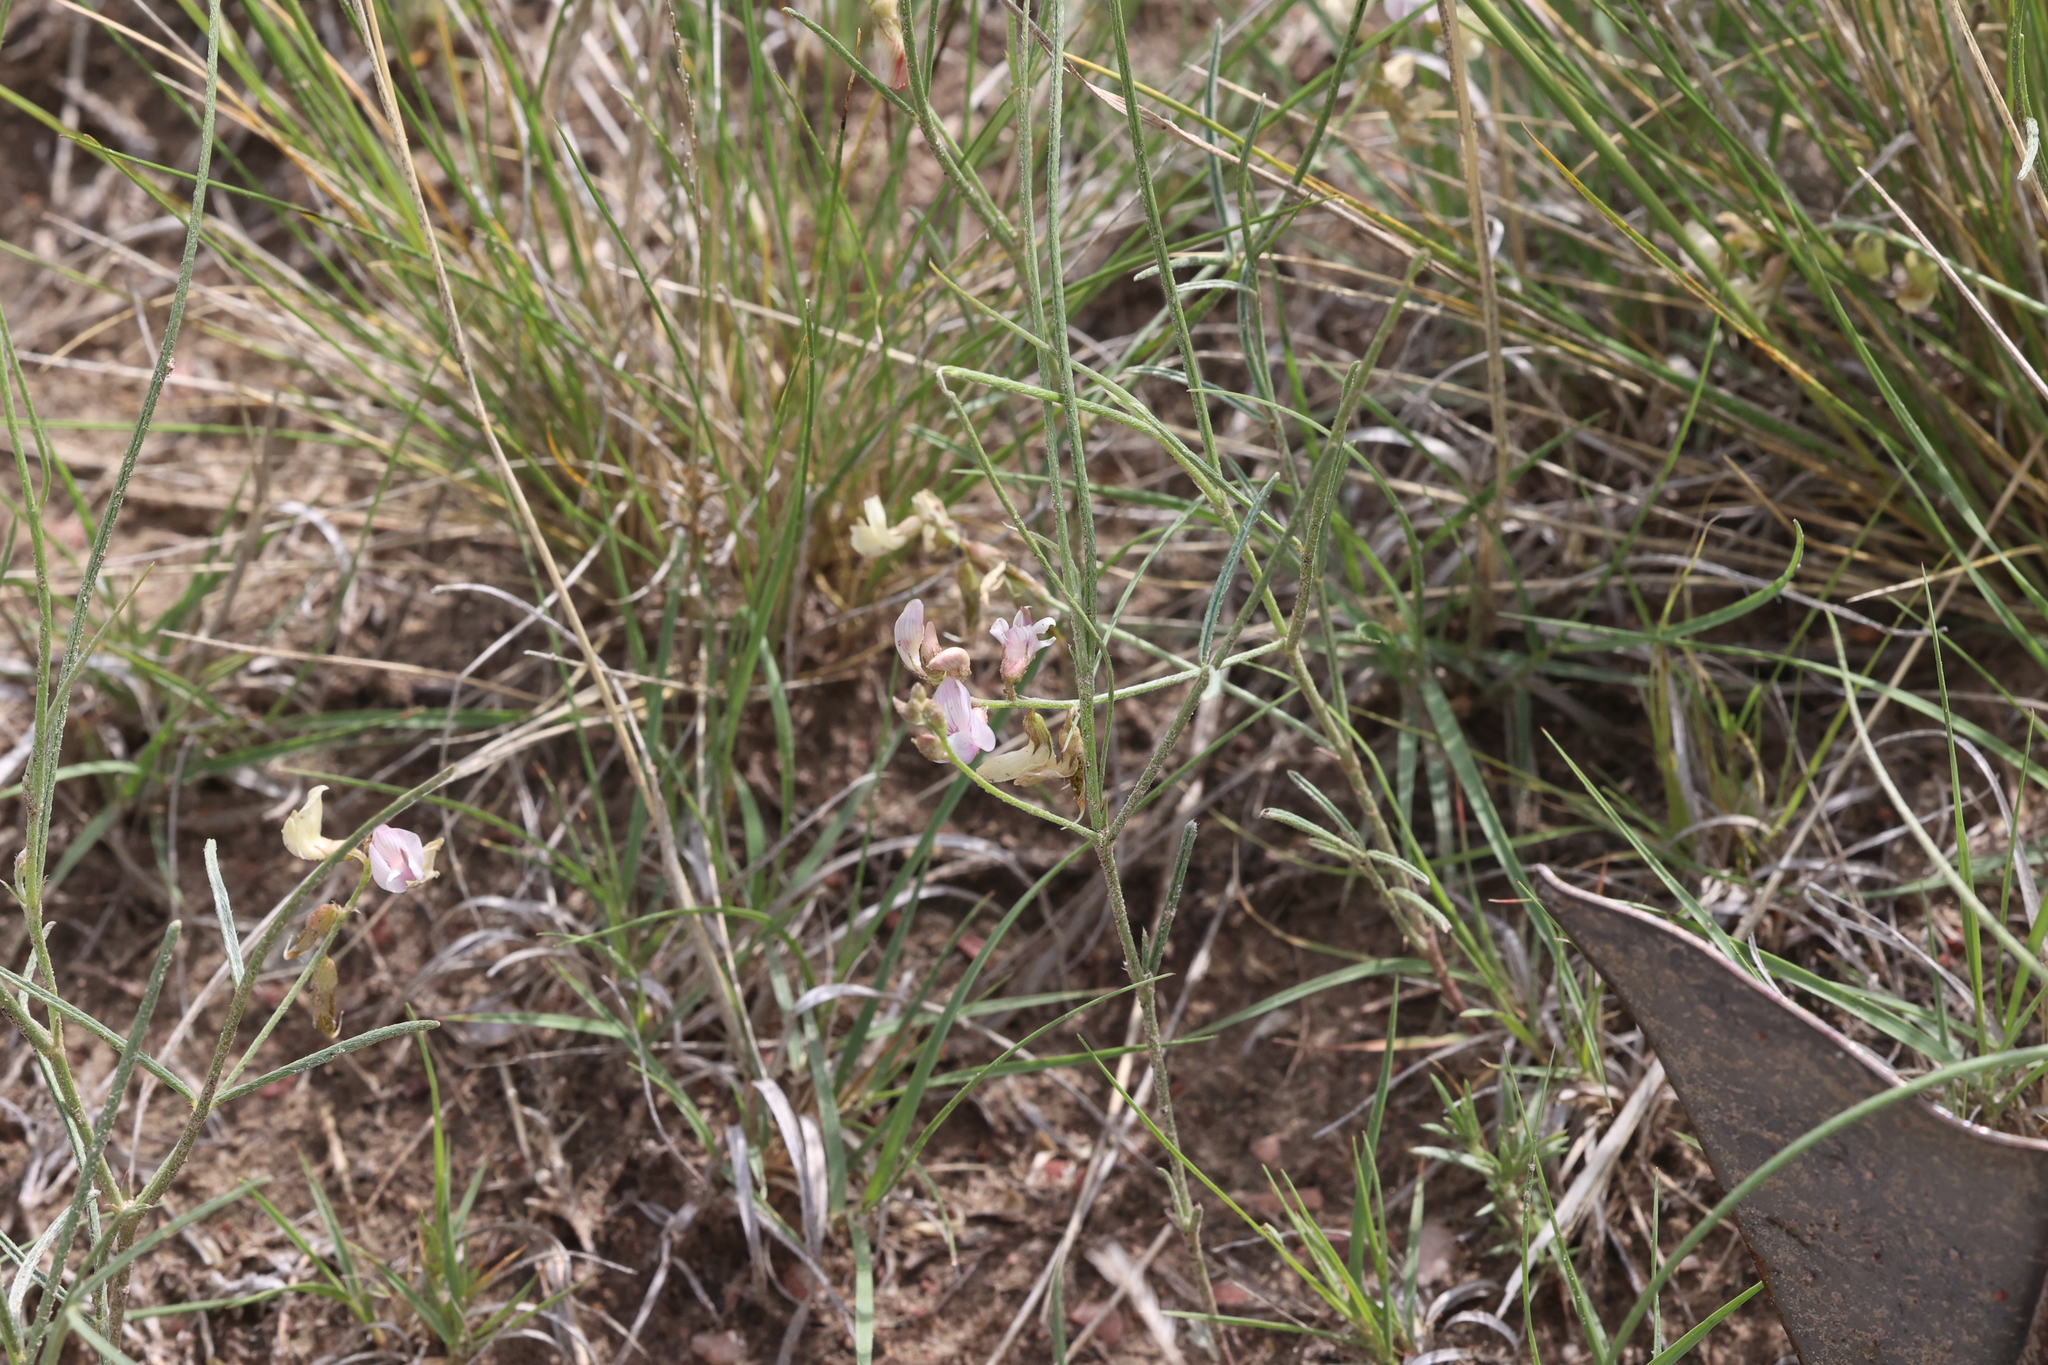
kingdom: Plantae
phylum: Tracheophyta
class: Magnoliopsida
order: Fabales
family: Fabaceae
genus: Astragalus
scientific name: Astragalus ceramicus
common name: Painted milk-vetch
